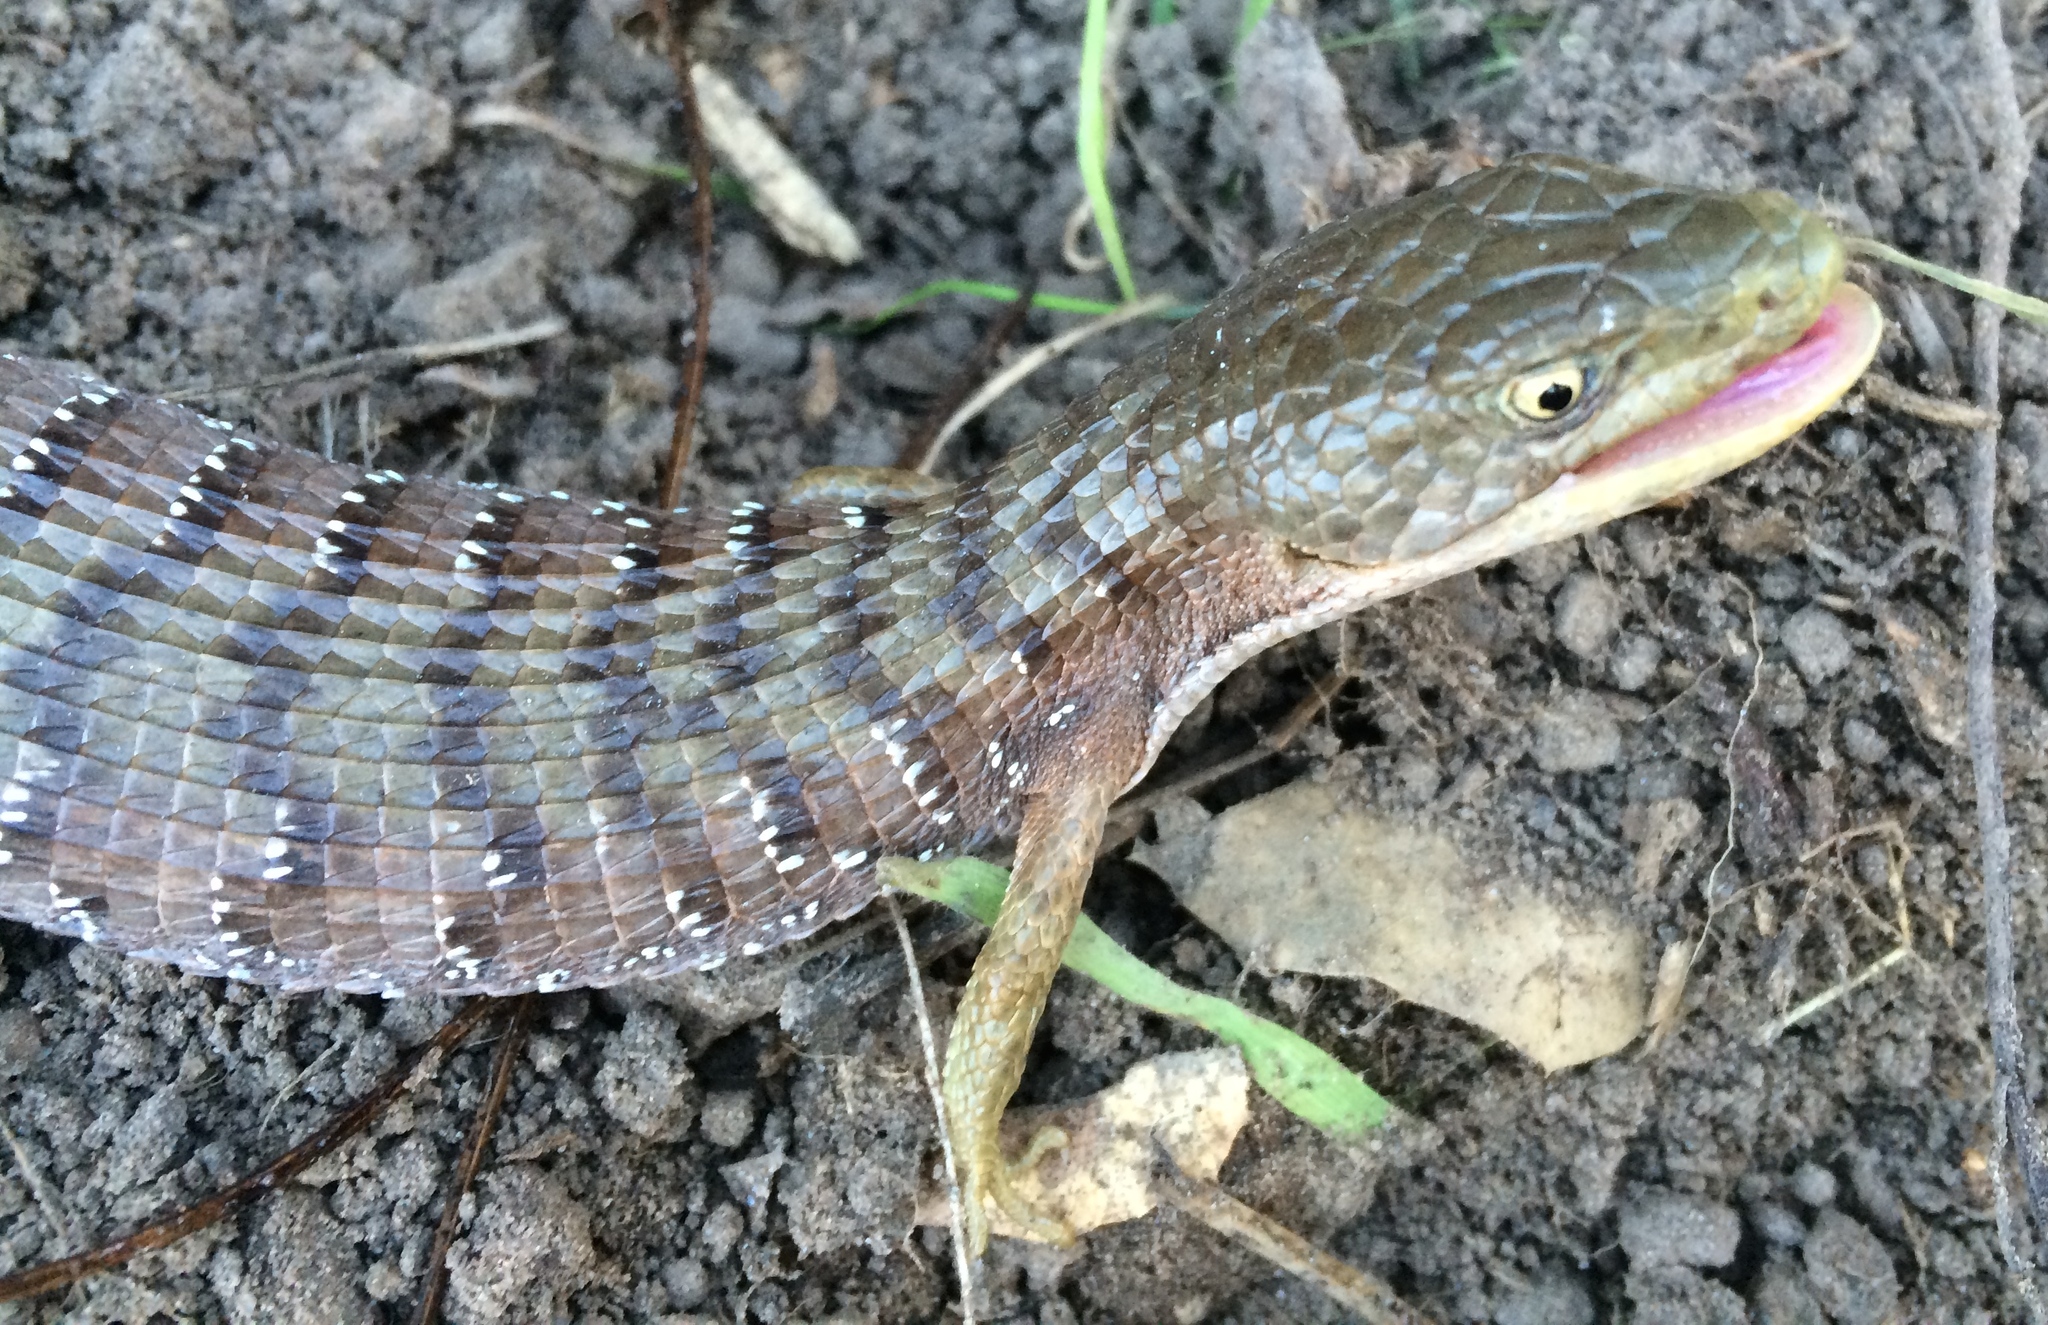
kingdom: Animalia
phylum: Chordata
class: Squamata
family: Anguidae
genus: Elgaria
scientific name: Elgaria multicarinata
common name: Southern alligator lizard
